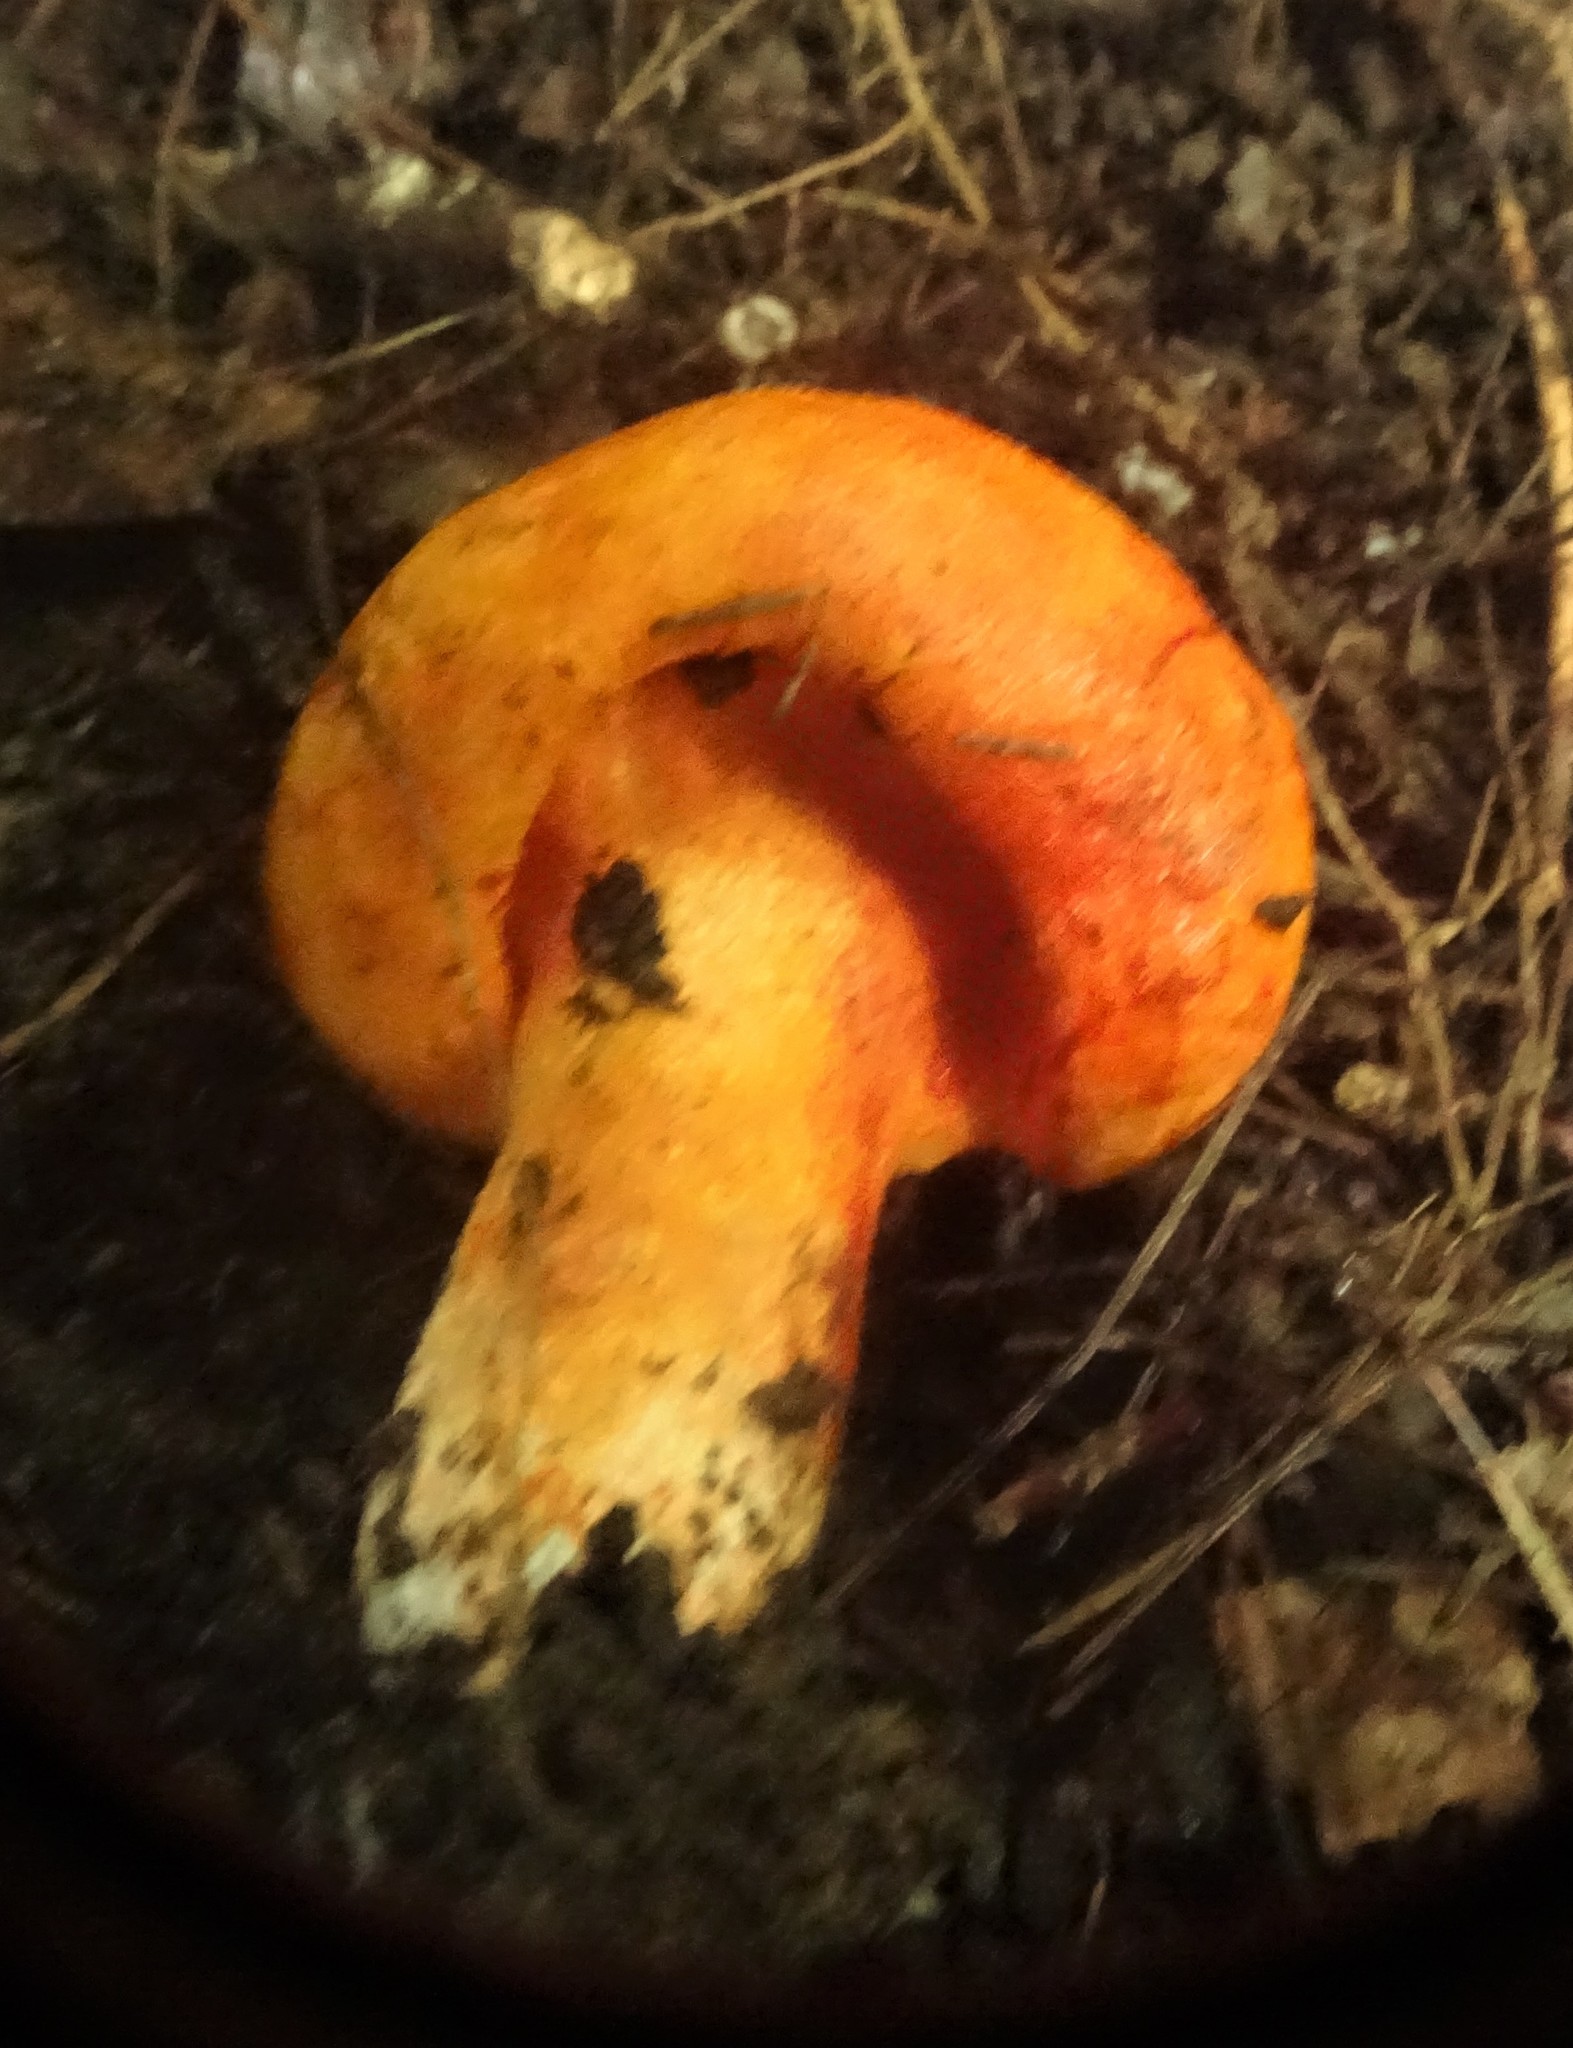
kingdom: Fungi
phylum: Ascomycota
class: Sordariomycetes
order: Hypocreales
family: Hypocreaceae
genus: Hypomyces
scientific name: Hypomyces lactifluorum
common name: Lobster mushroom
